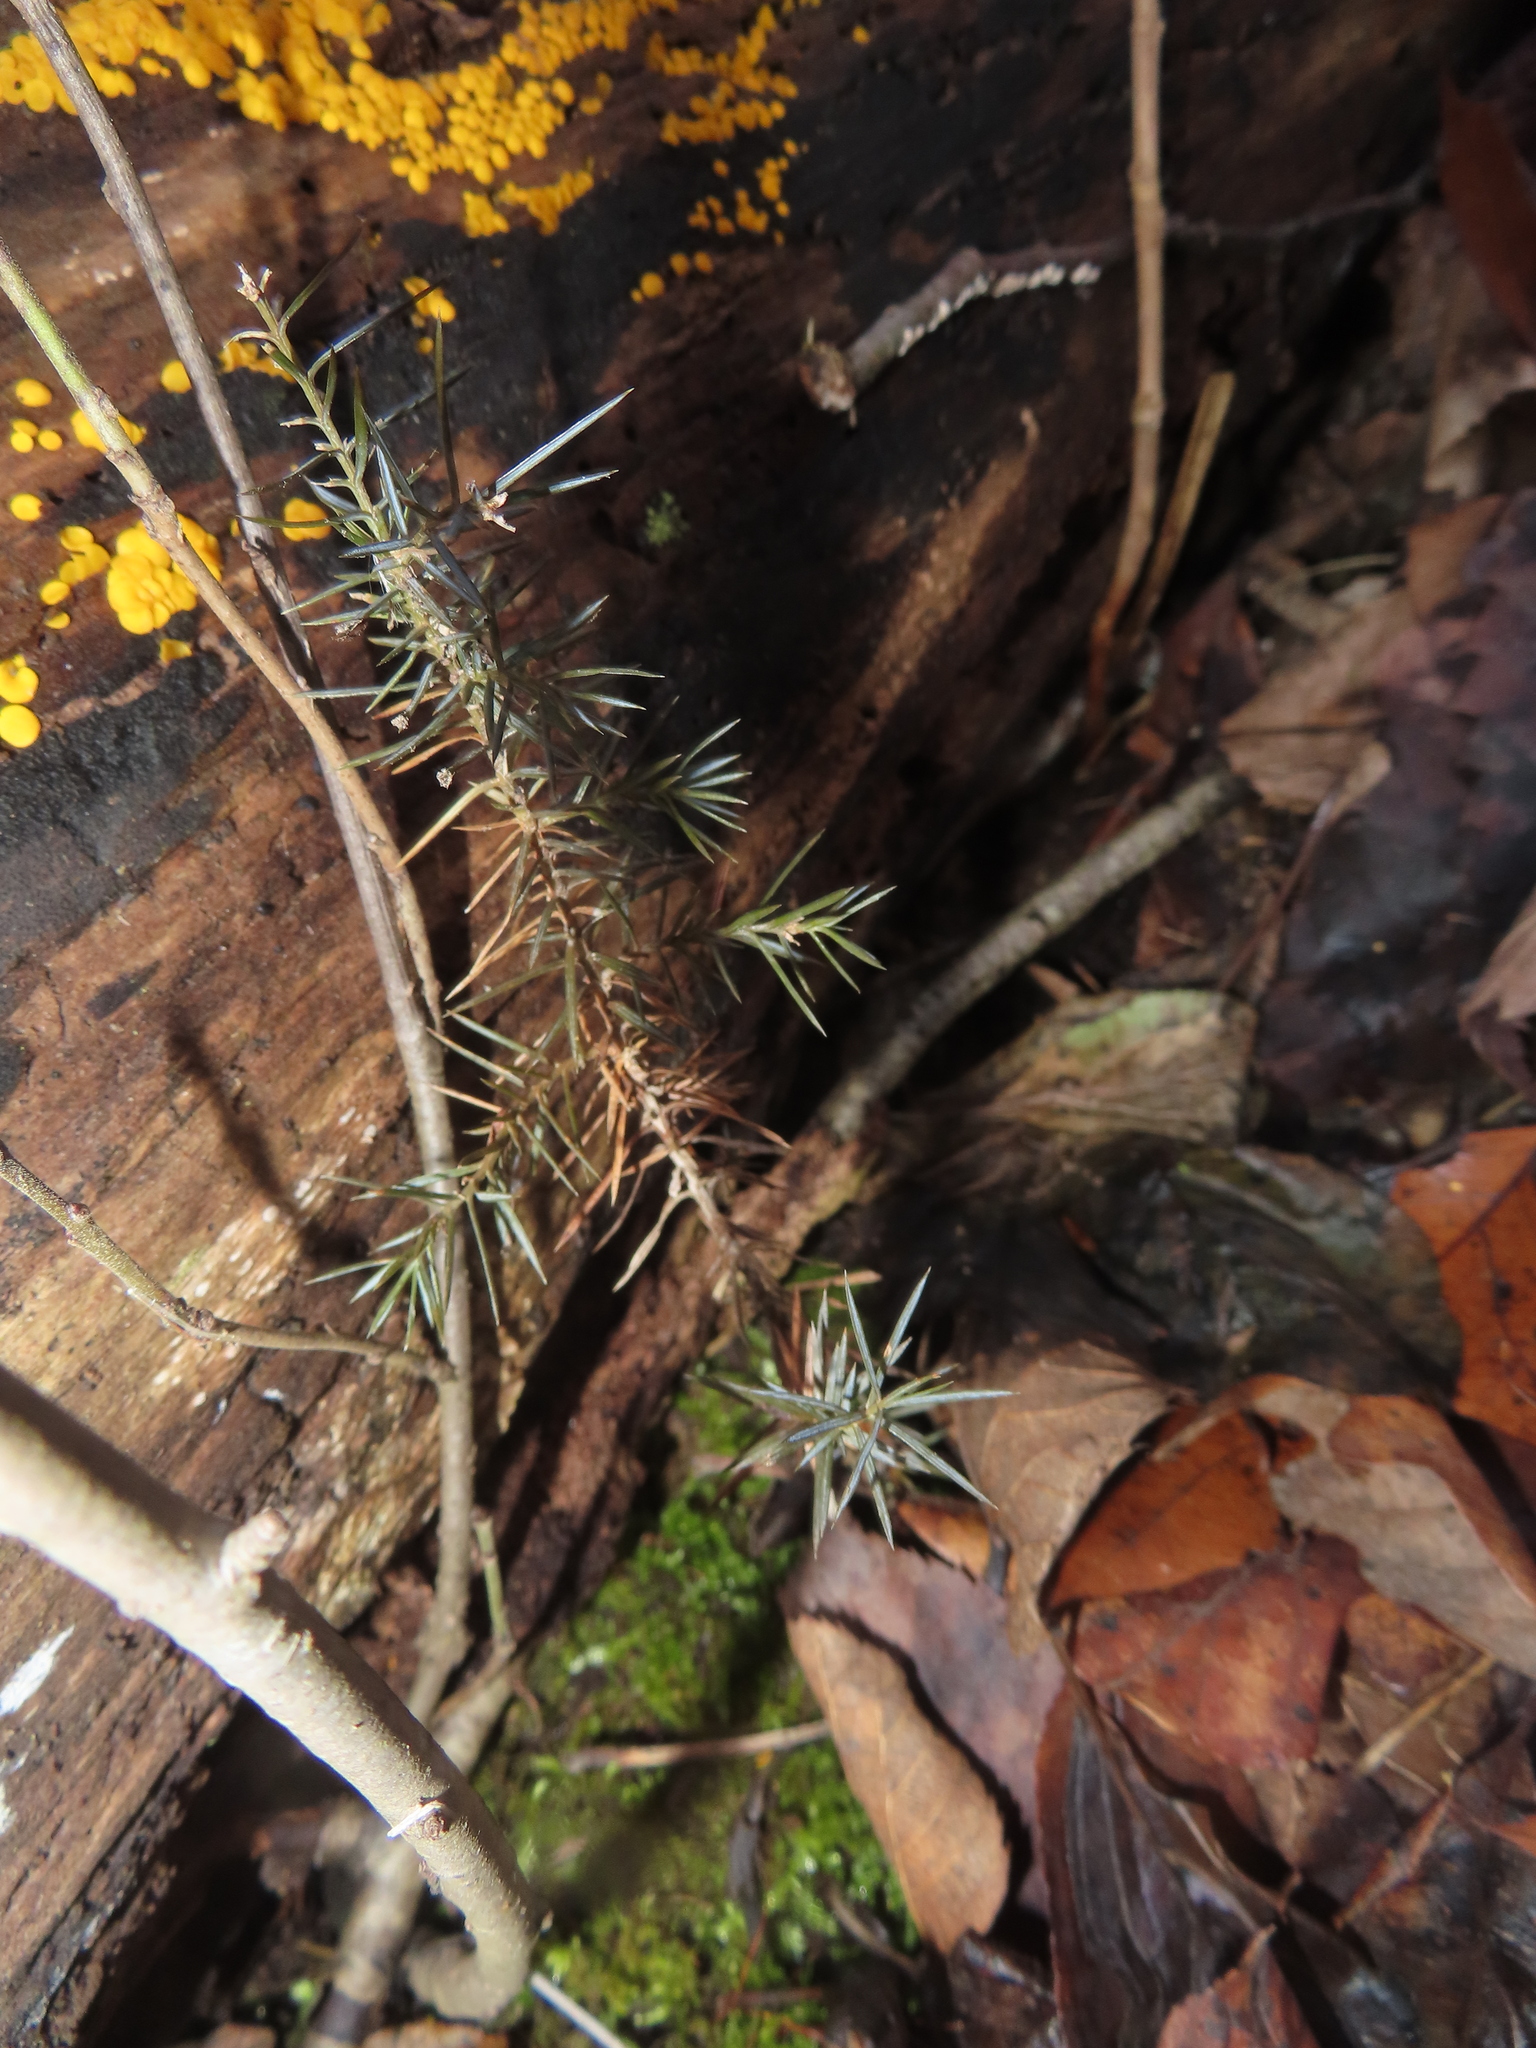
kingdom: Plantae
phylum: Tracheophyta
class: Pinopsida
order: Pinales
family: Cupressaceae
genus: Juniperus
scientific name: Juniperus virginiana
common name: Red juniper
